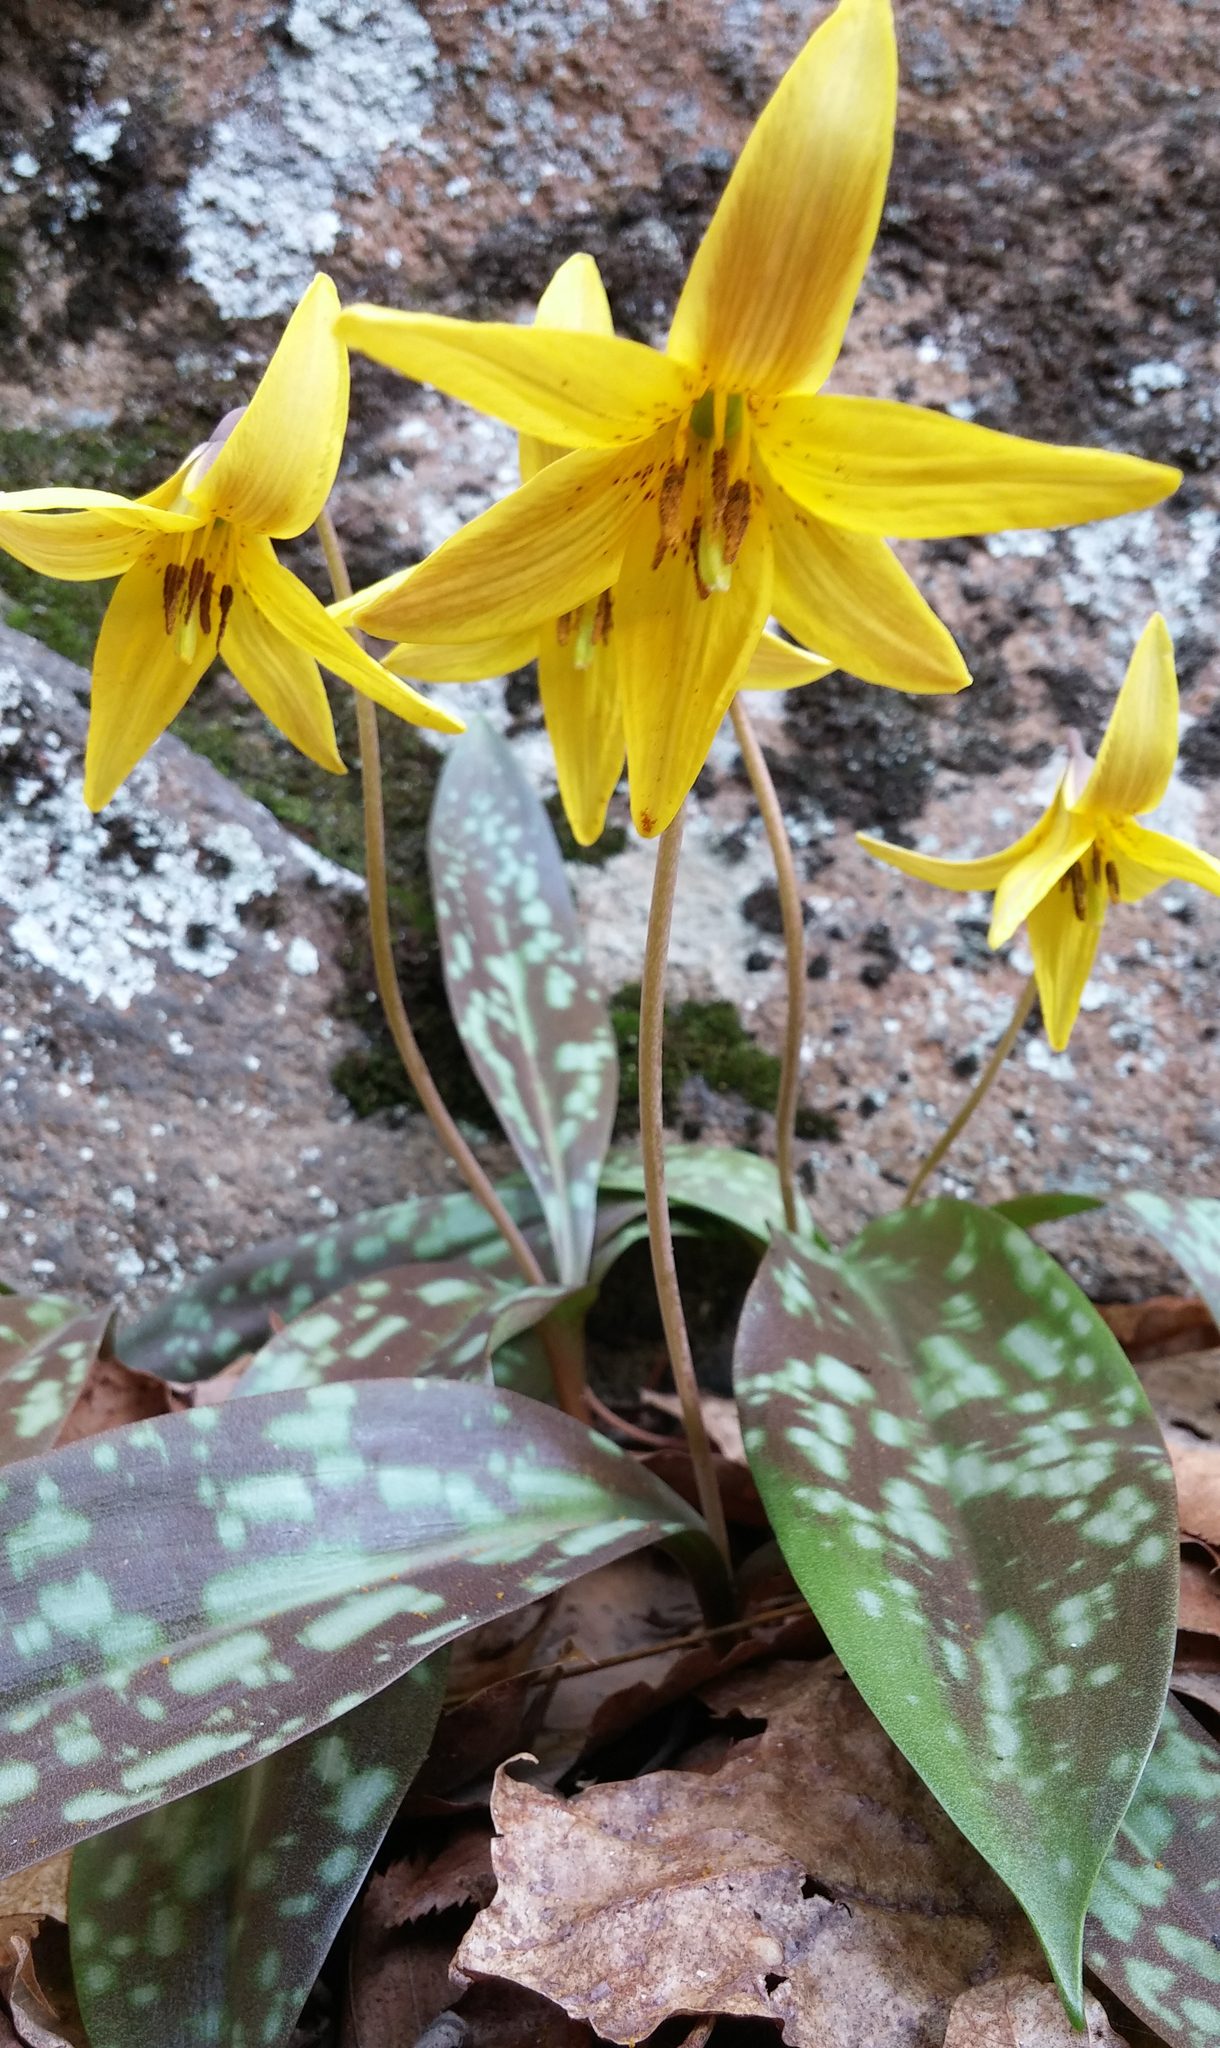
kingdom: Plantae
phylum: Tracheophyta
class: Liliopsida
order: Liliales
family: Liliaceae
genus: Erythronium
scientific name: Erythronium americanum
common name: Yellow adder's-tongue
